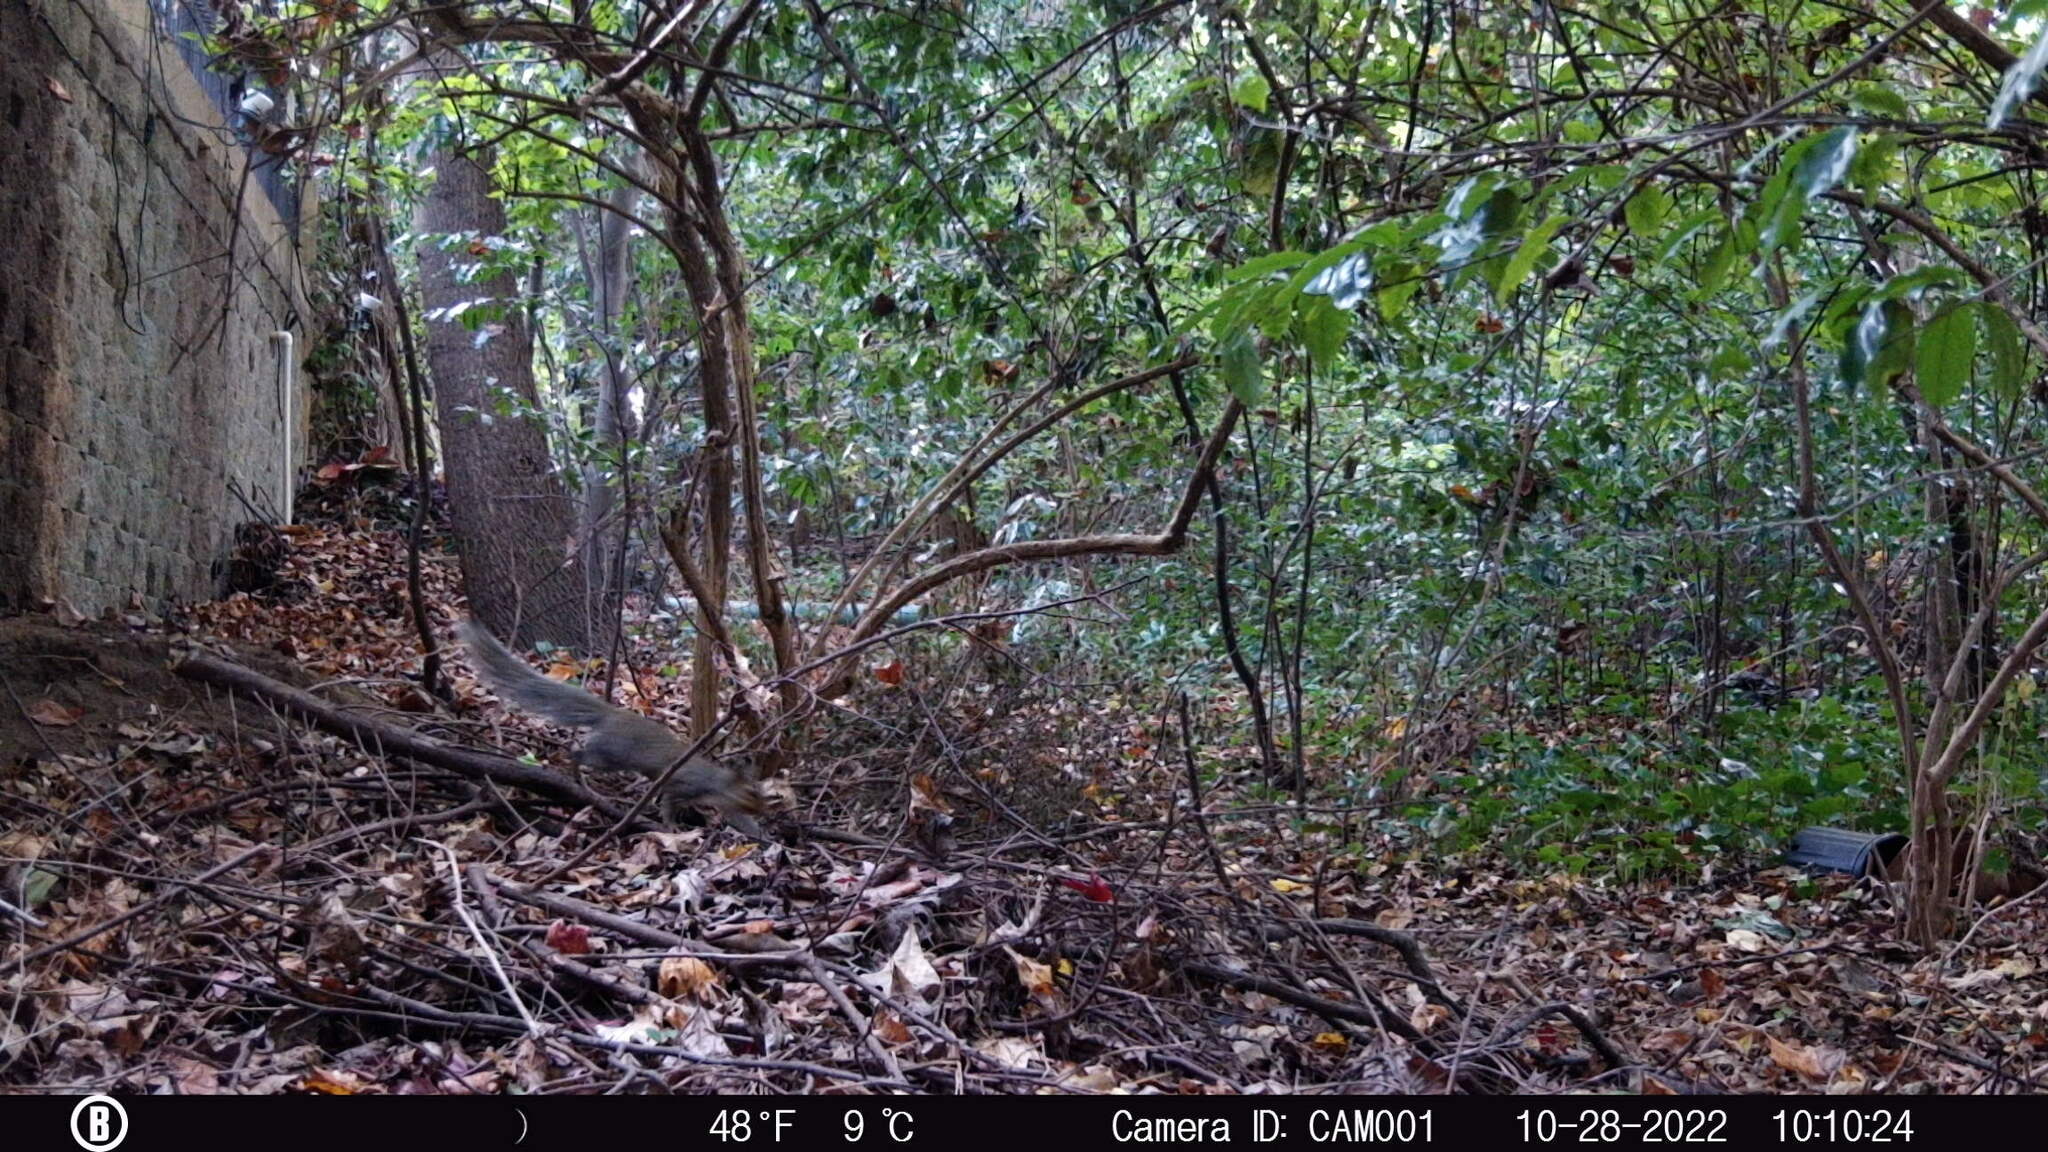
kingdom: Animalia
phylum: Chordata
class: Mammalia
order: Rodentia
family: Sciuridae
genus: Sciurus
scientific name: Sciurus carolinensis
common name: Eastern gray squirrel
